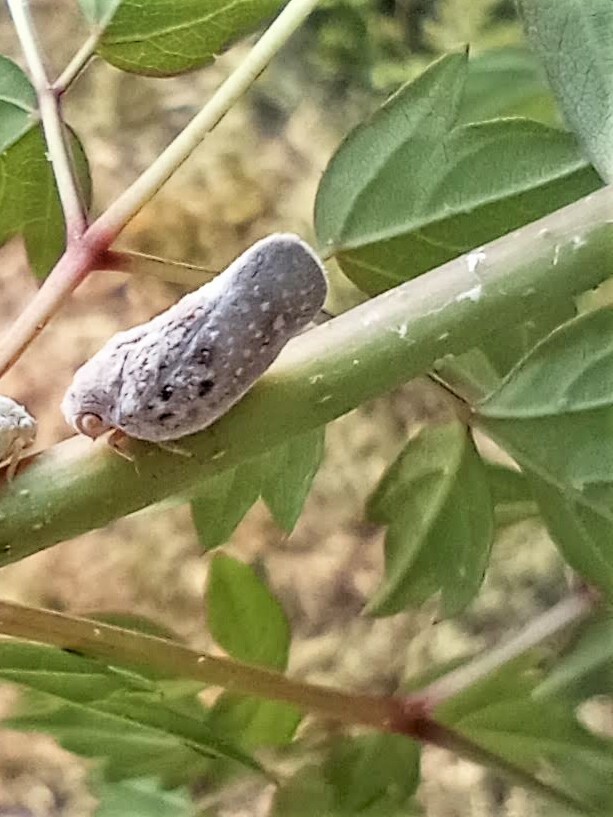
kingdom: Animalia
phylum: Arthropoda
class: Insecta
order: Hemiptera
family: Flatidae
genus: Metcalfa
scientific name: Metcalfa pruinosa
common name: Citrus flatid planthopper
